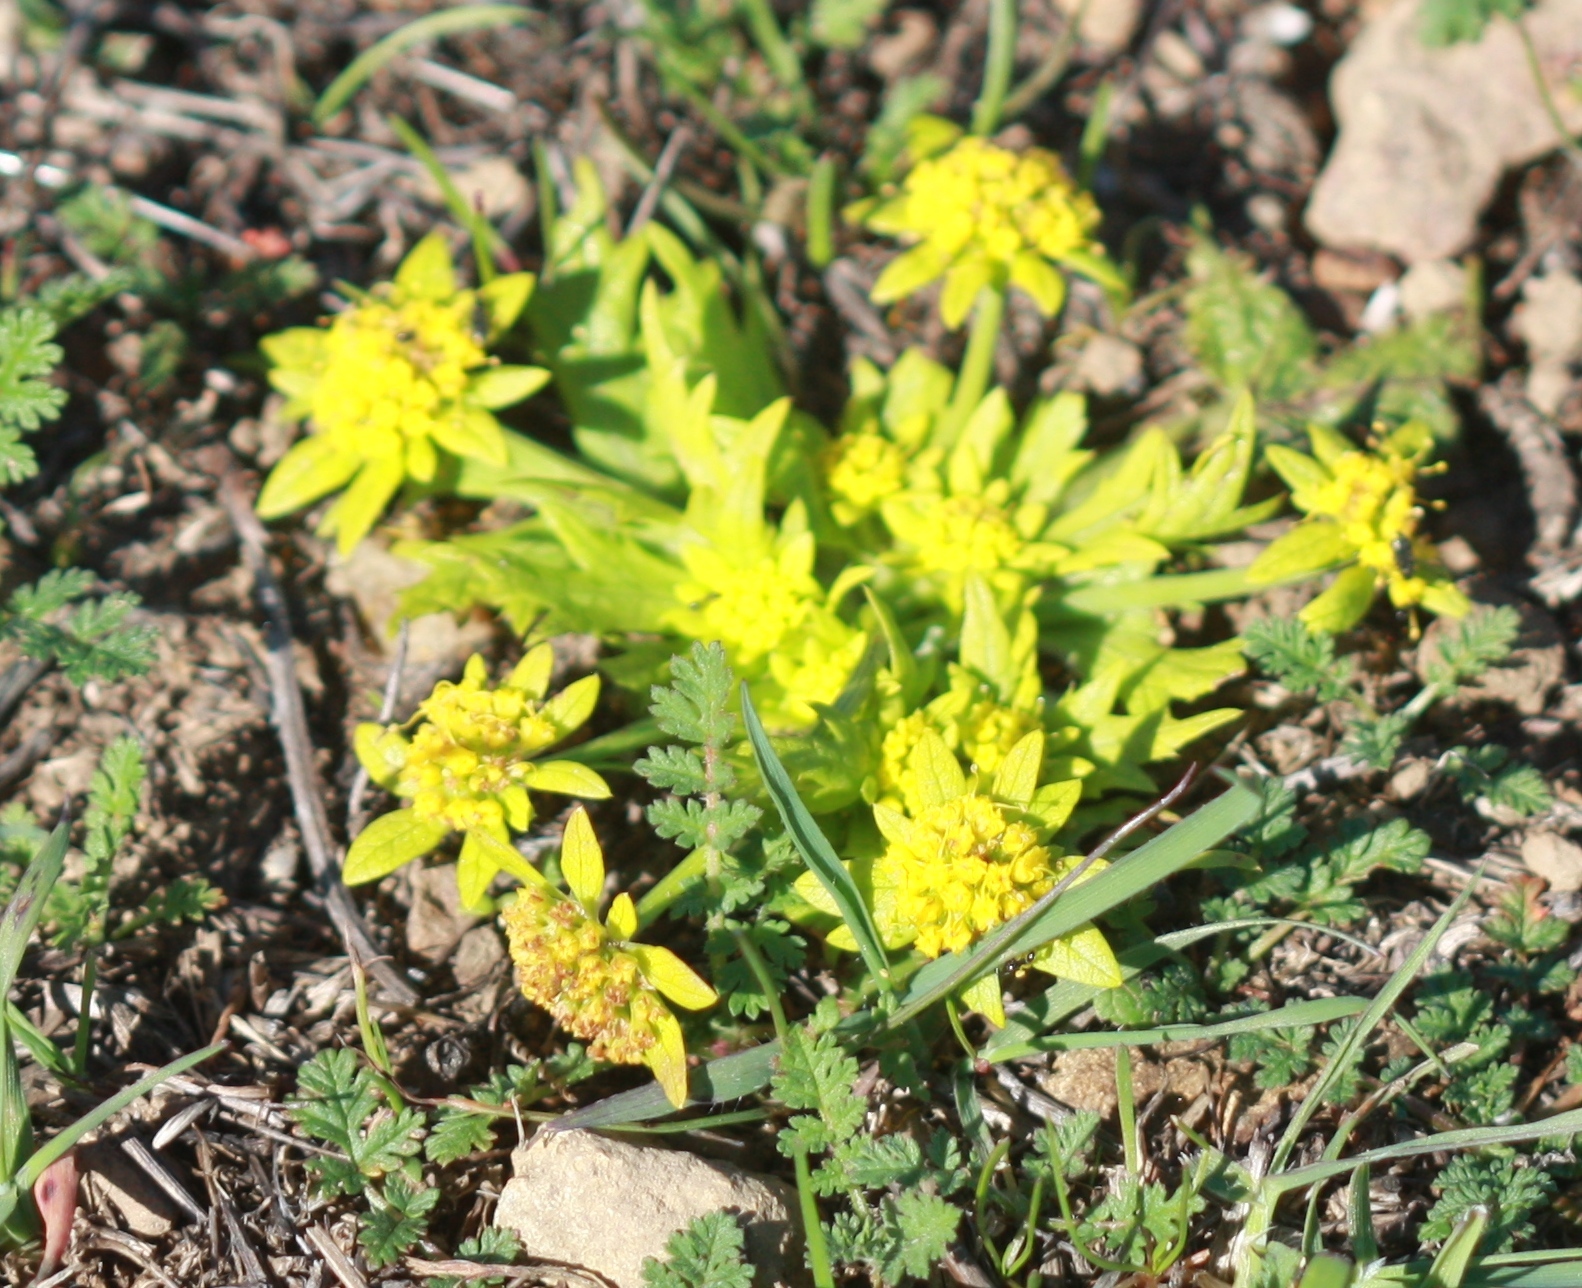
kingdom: Plantae
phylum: Tracheophyta
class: Magnoliopsida
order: Apiales
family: Apiaceae
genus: Sanicula
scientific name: Sanicula arctopoides
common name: Footsteps-of-spring
